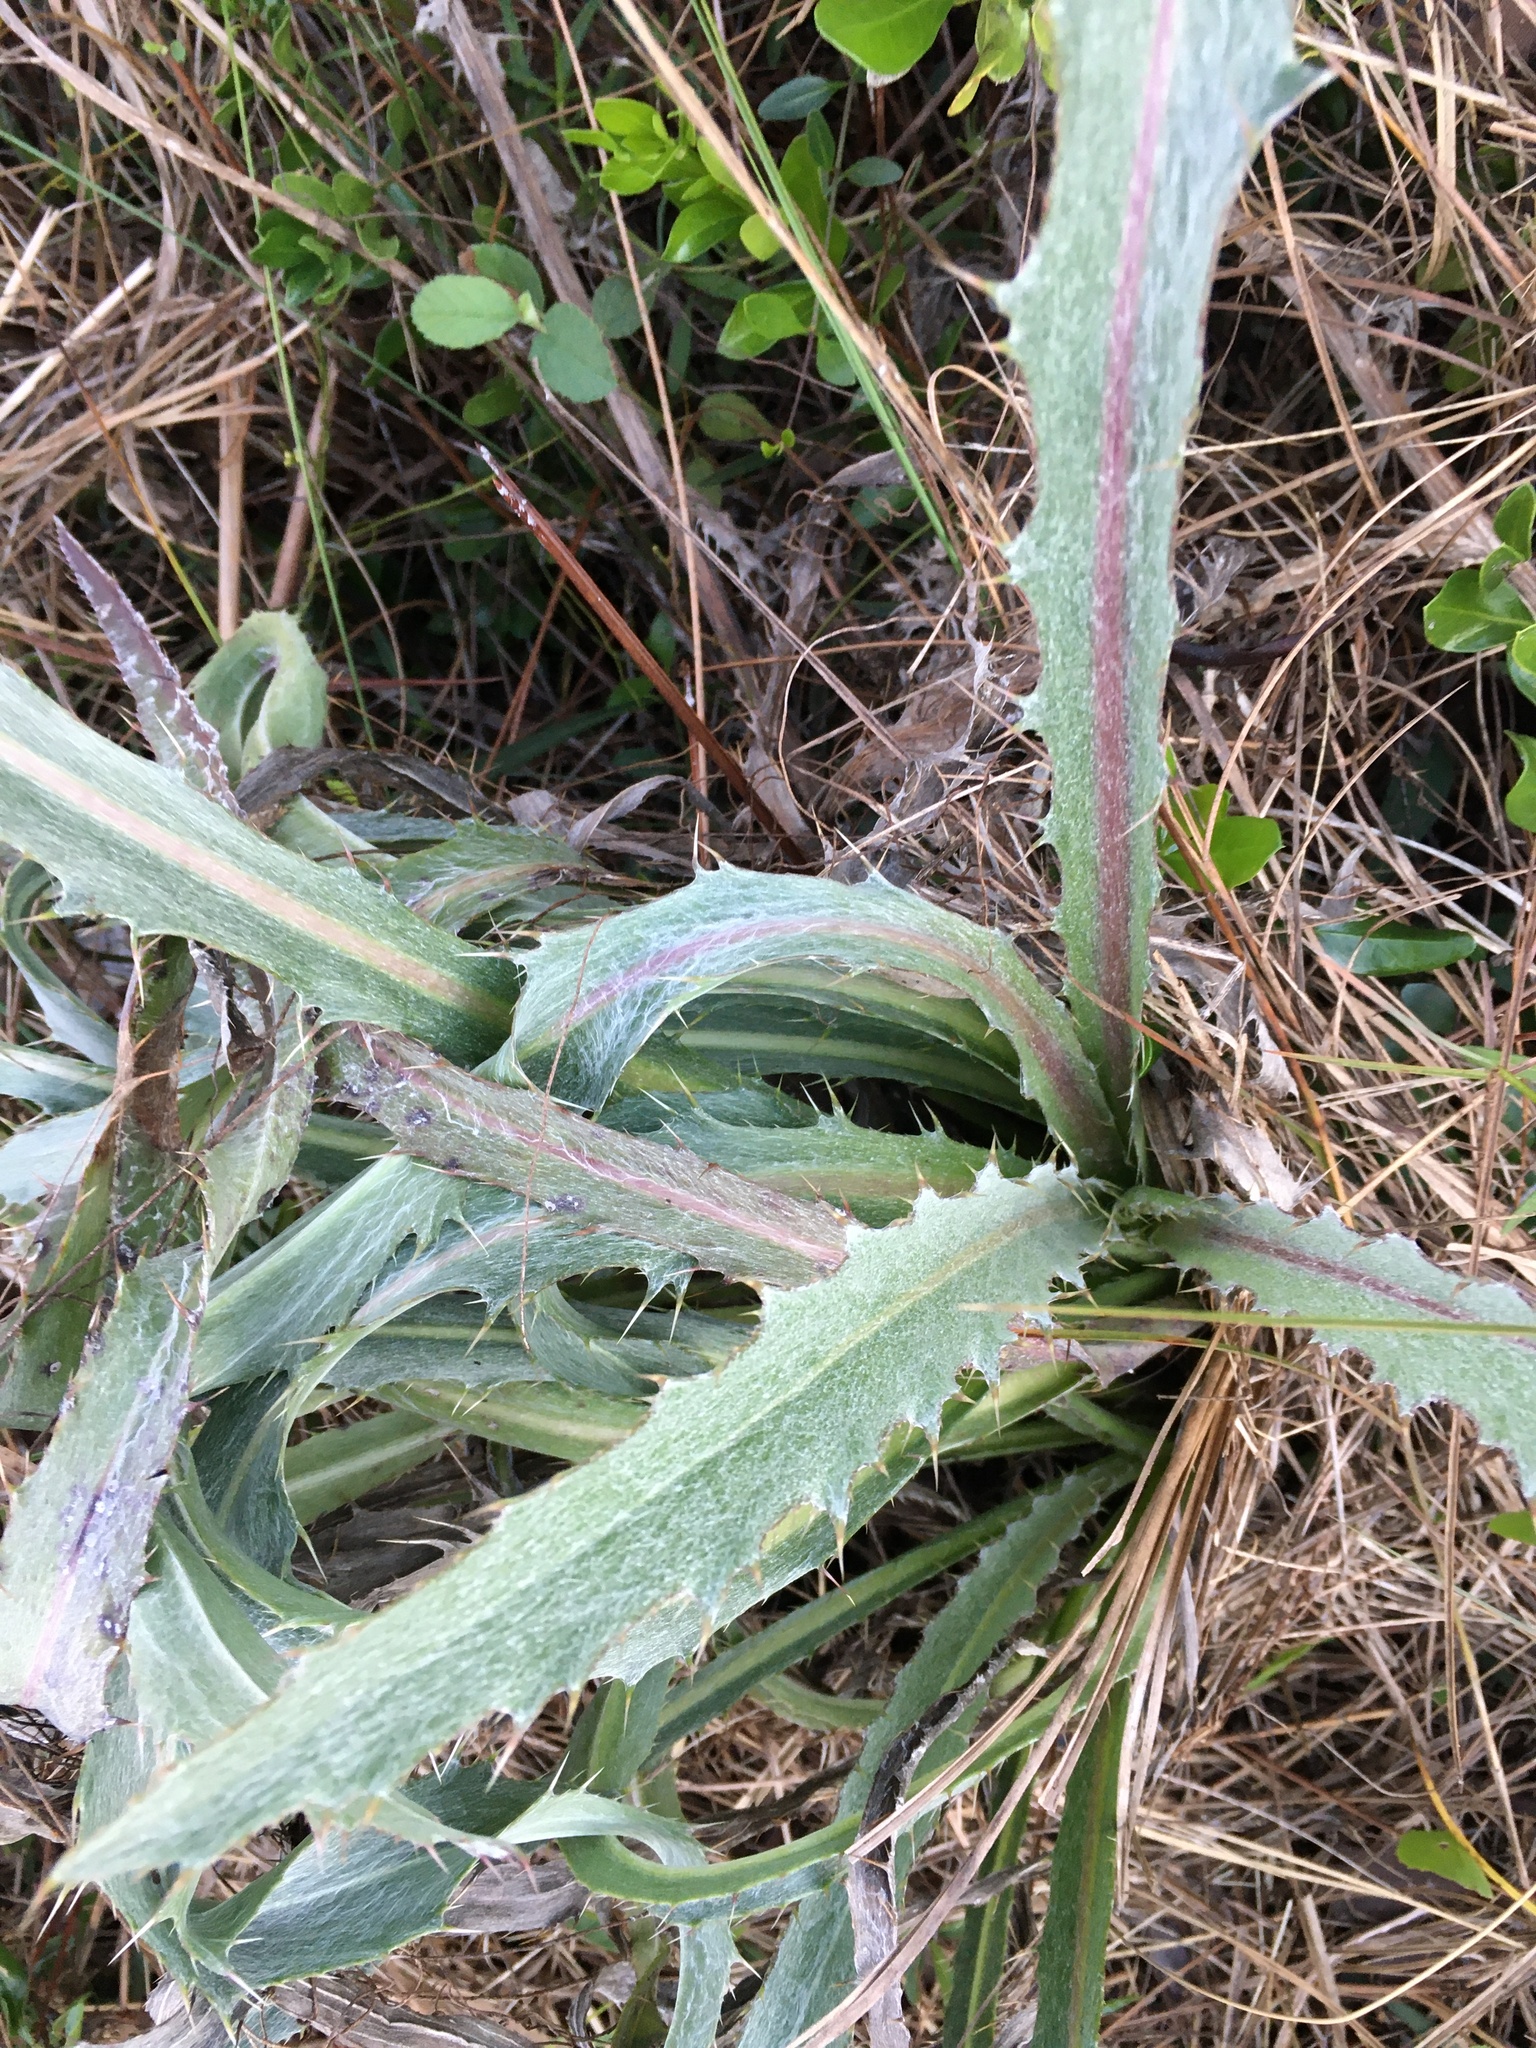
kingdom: Plantae
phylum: Tracheophyta
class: Magnoliopsida
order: Asterales
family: Asteraceae
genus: Cirsium
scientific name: Cirsium horridulum
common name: Bristly thistle
